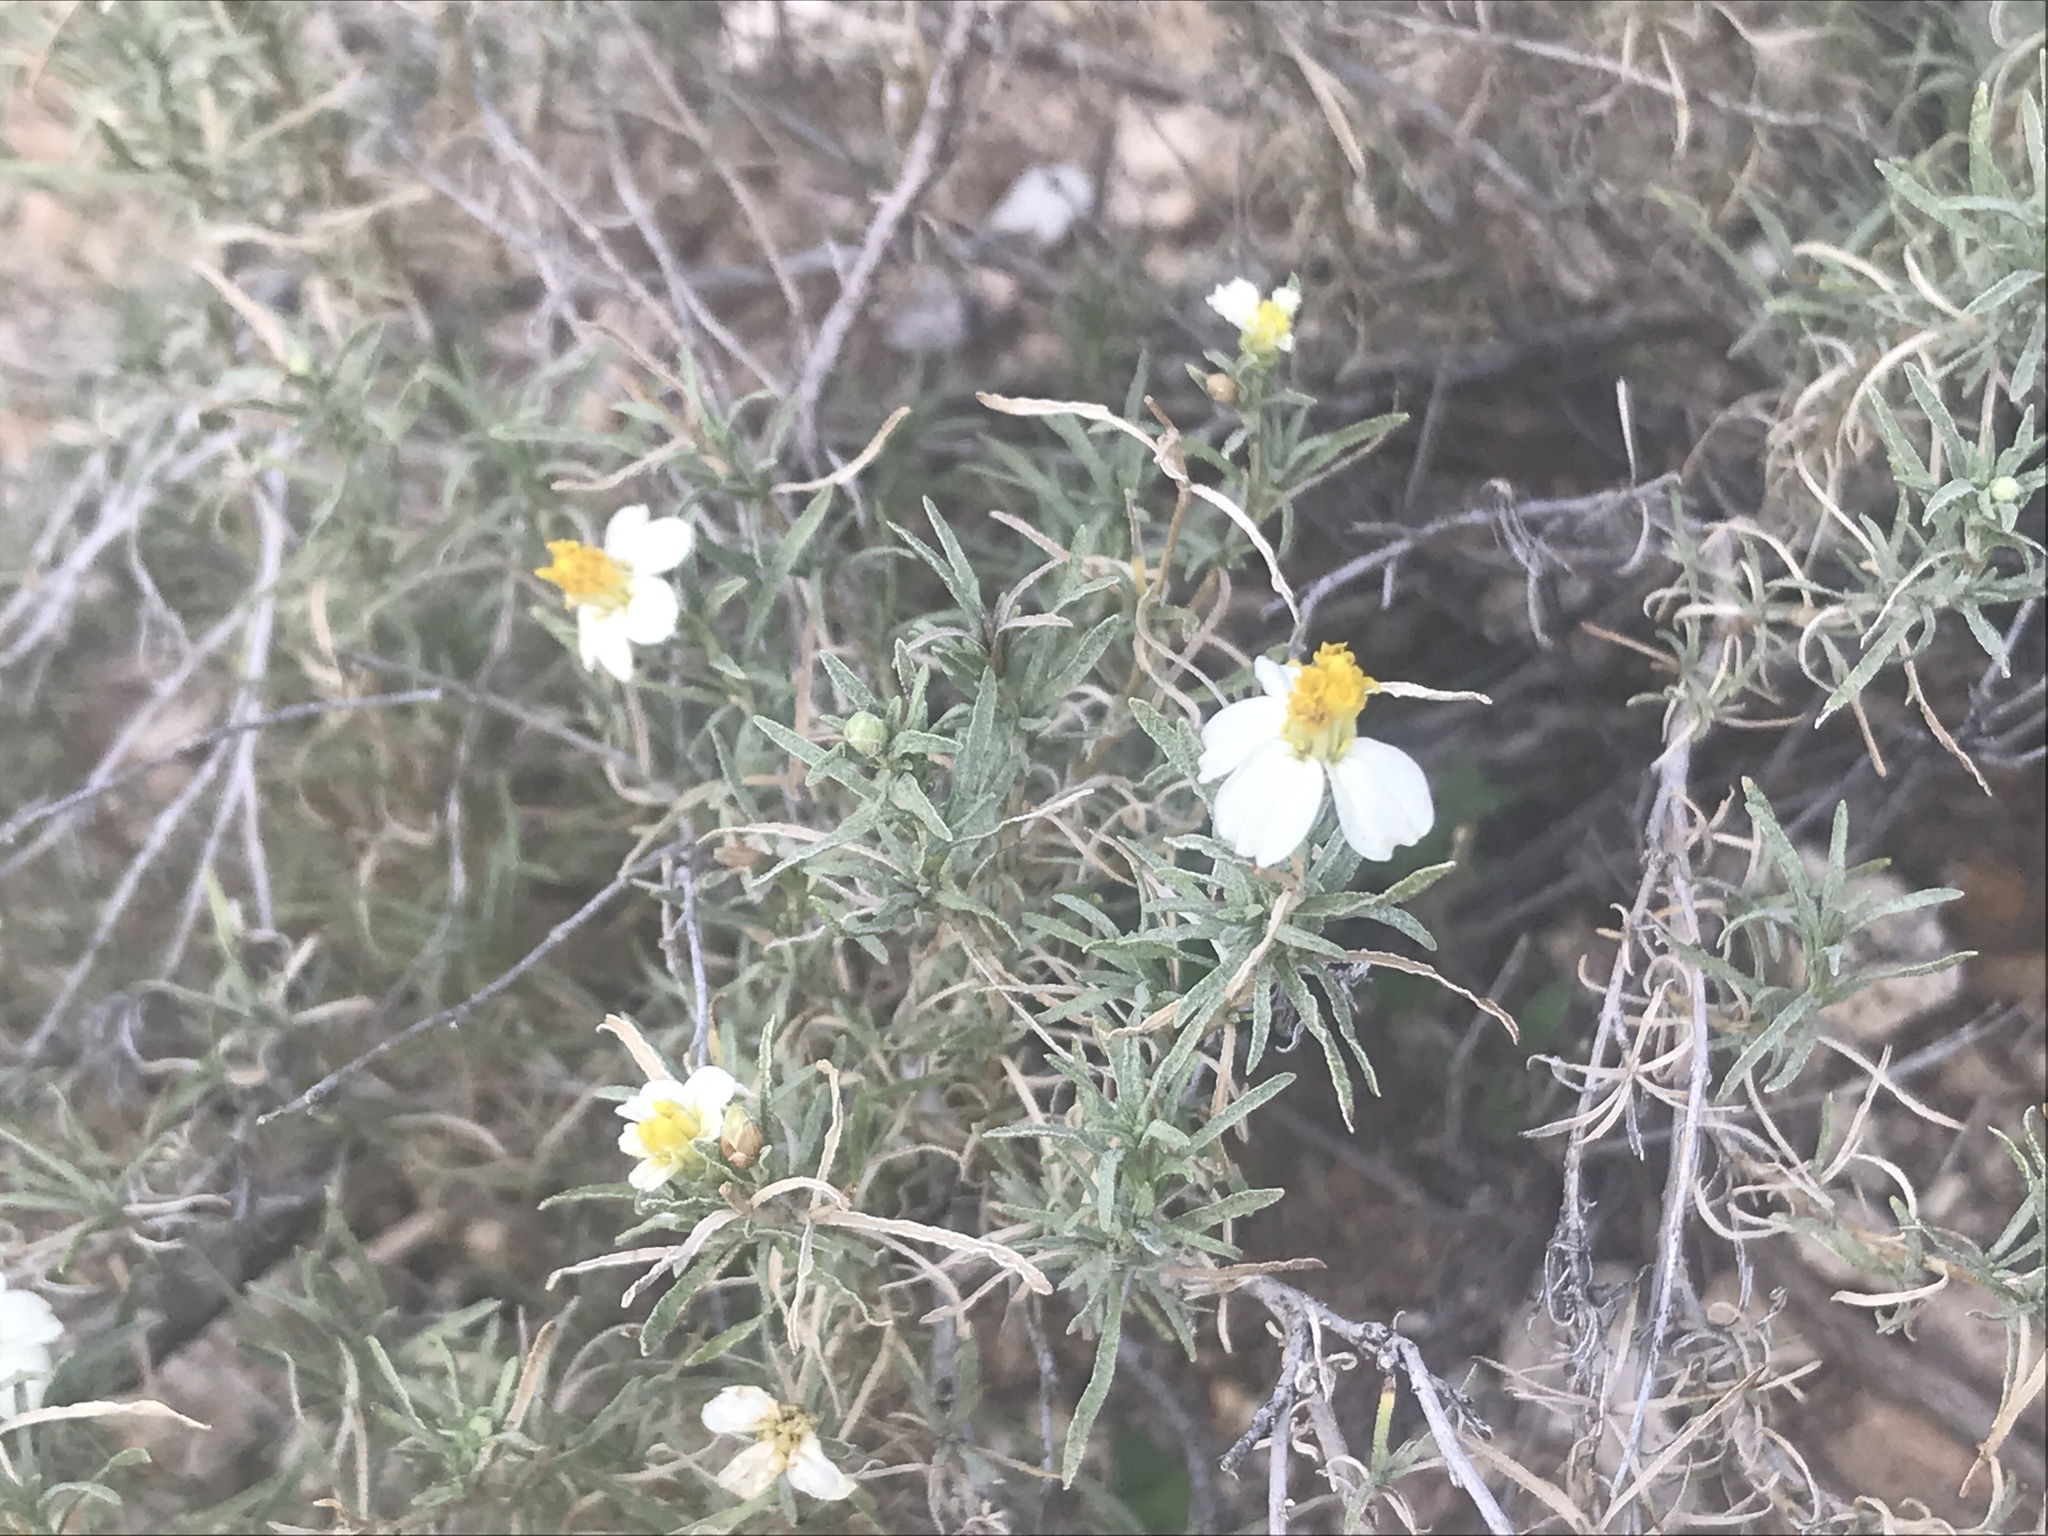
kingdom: Plantae
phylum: Tracheophyta
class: Magnoliopsida
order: Asterales
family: Asteraceae
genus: Zinnia
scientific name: Zinnia acerosa
